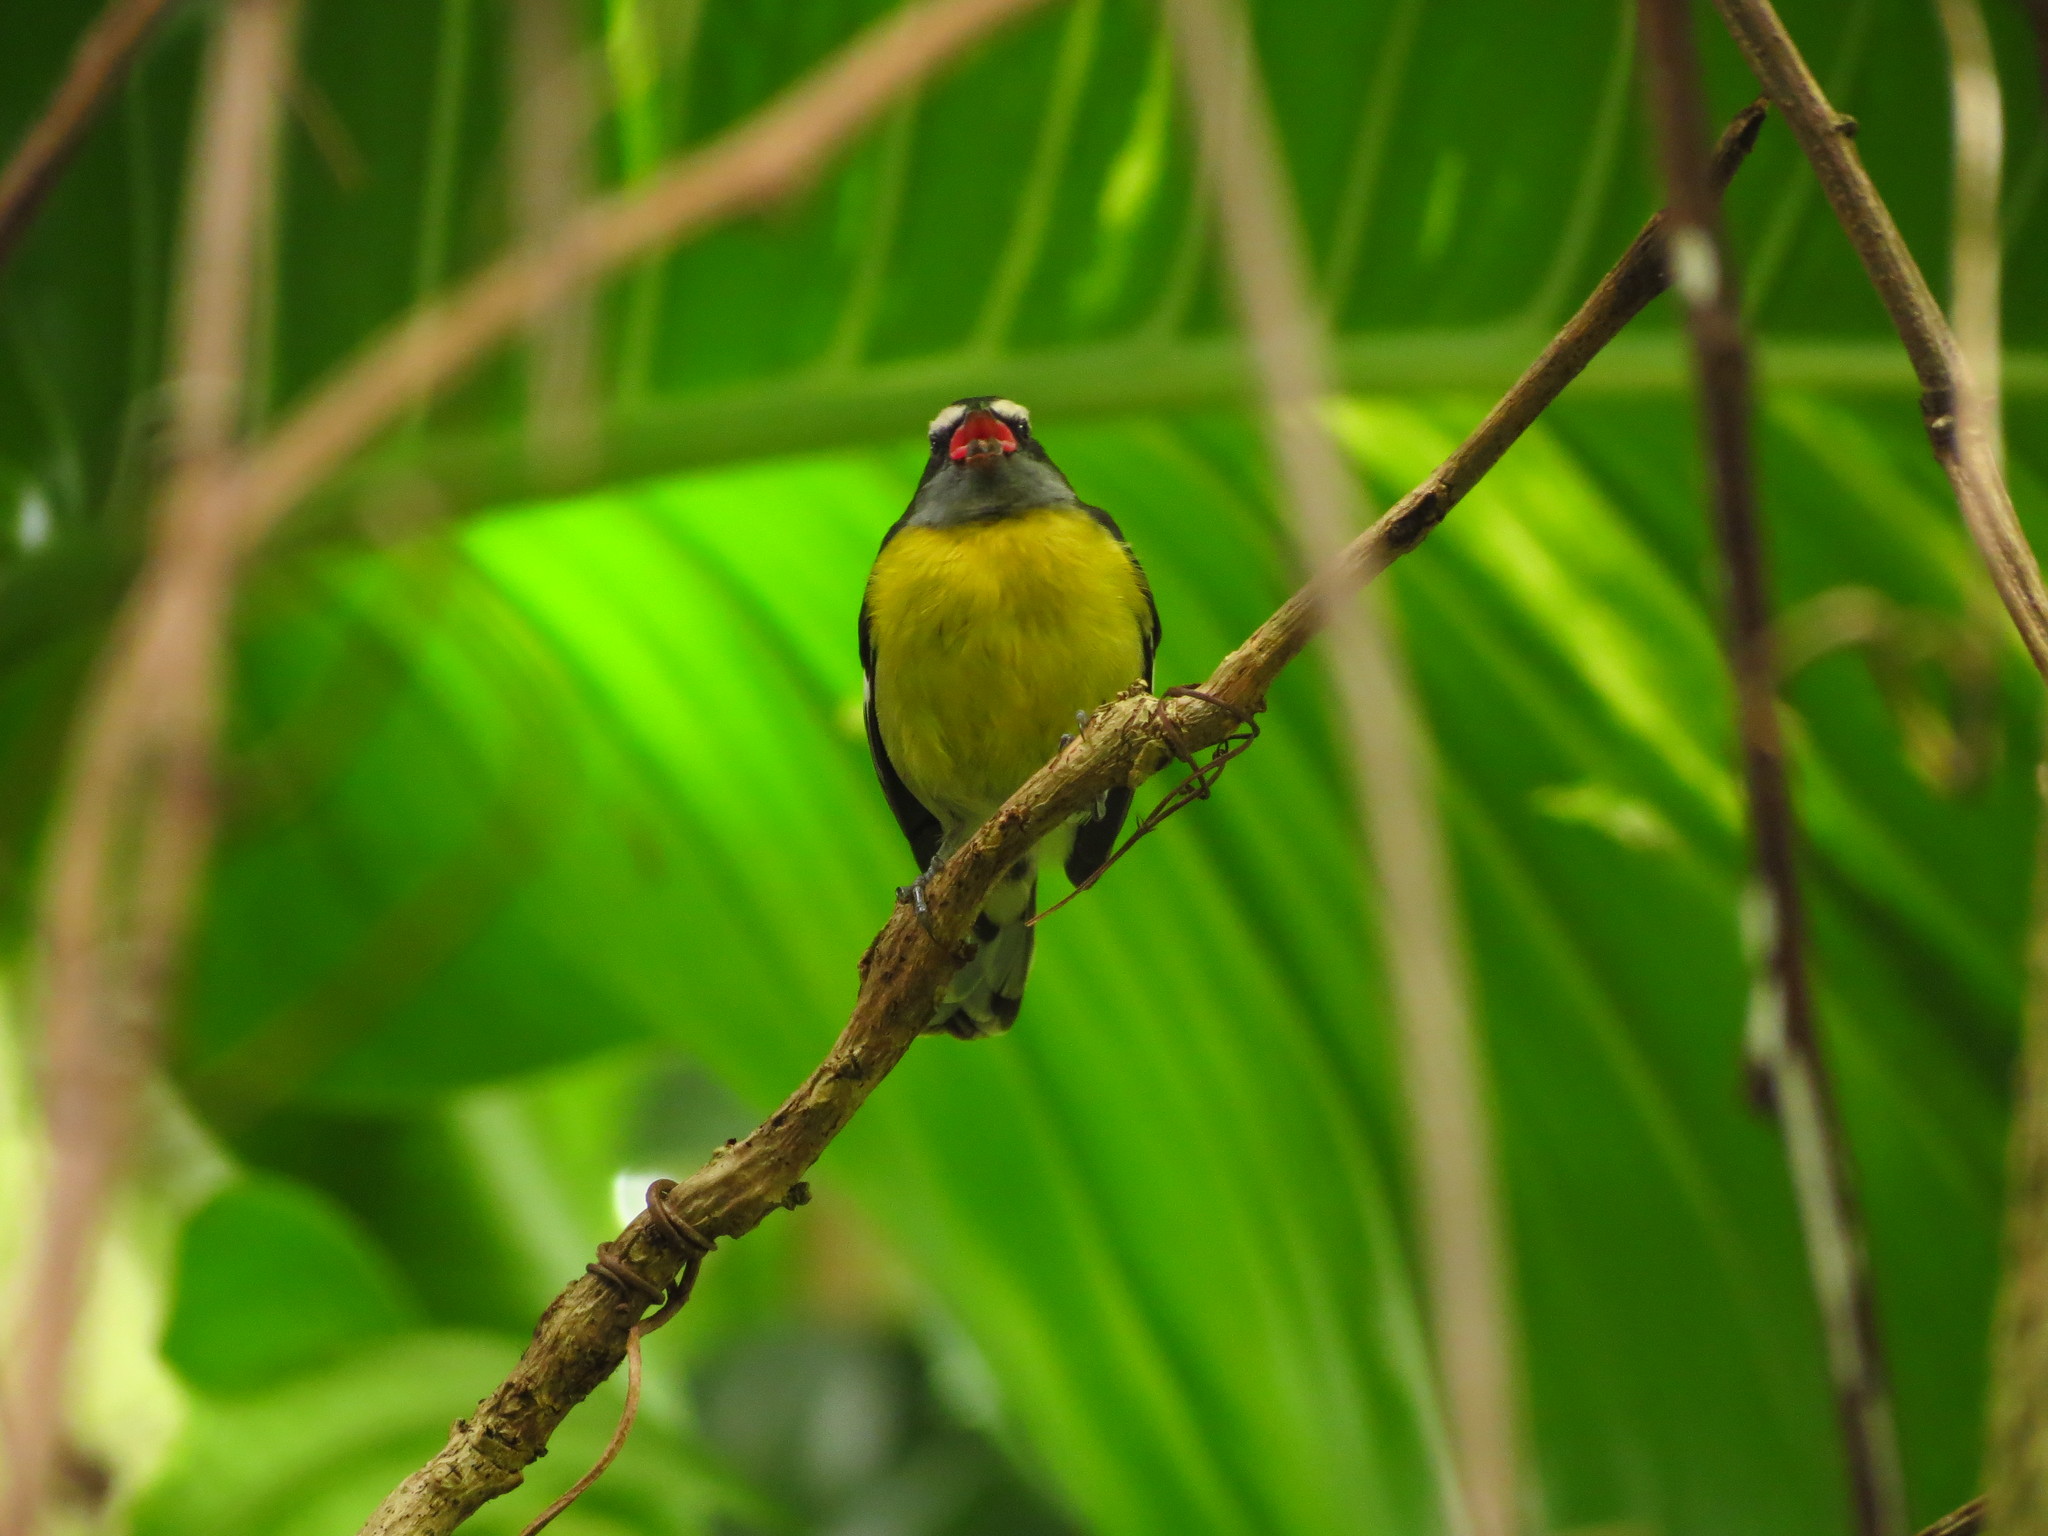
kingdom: Animalia
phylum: Chordata
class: Aves
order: Passeriformes
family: Thraupidae
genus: Coereba
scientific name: Coereba flaveola
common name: Bananaquit
